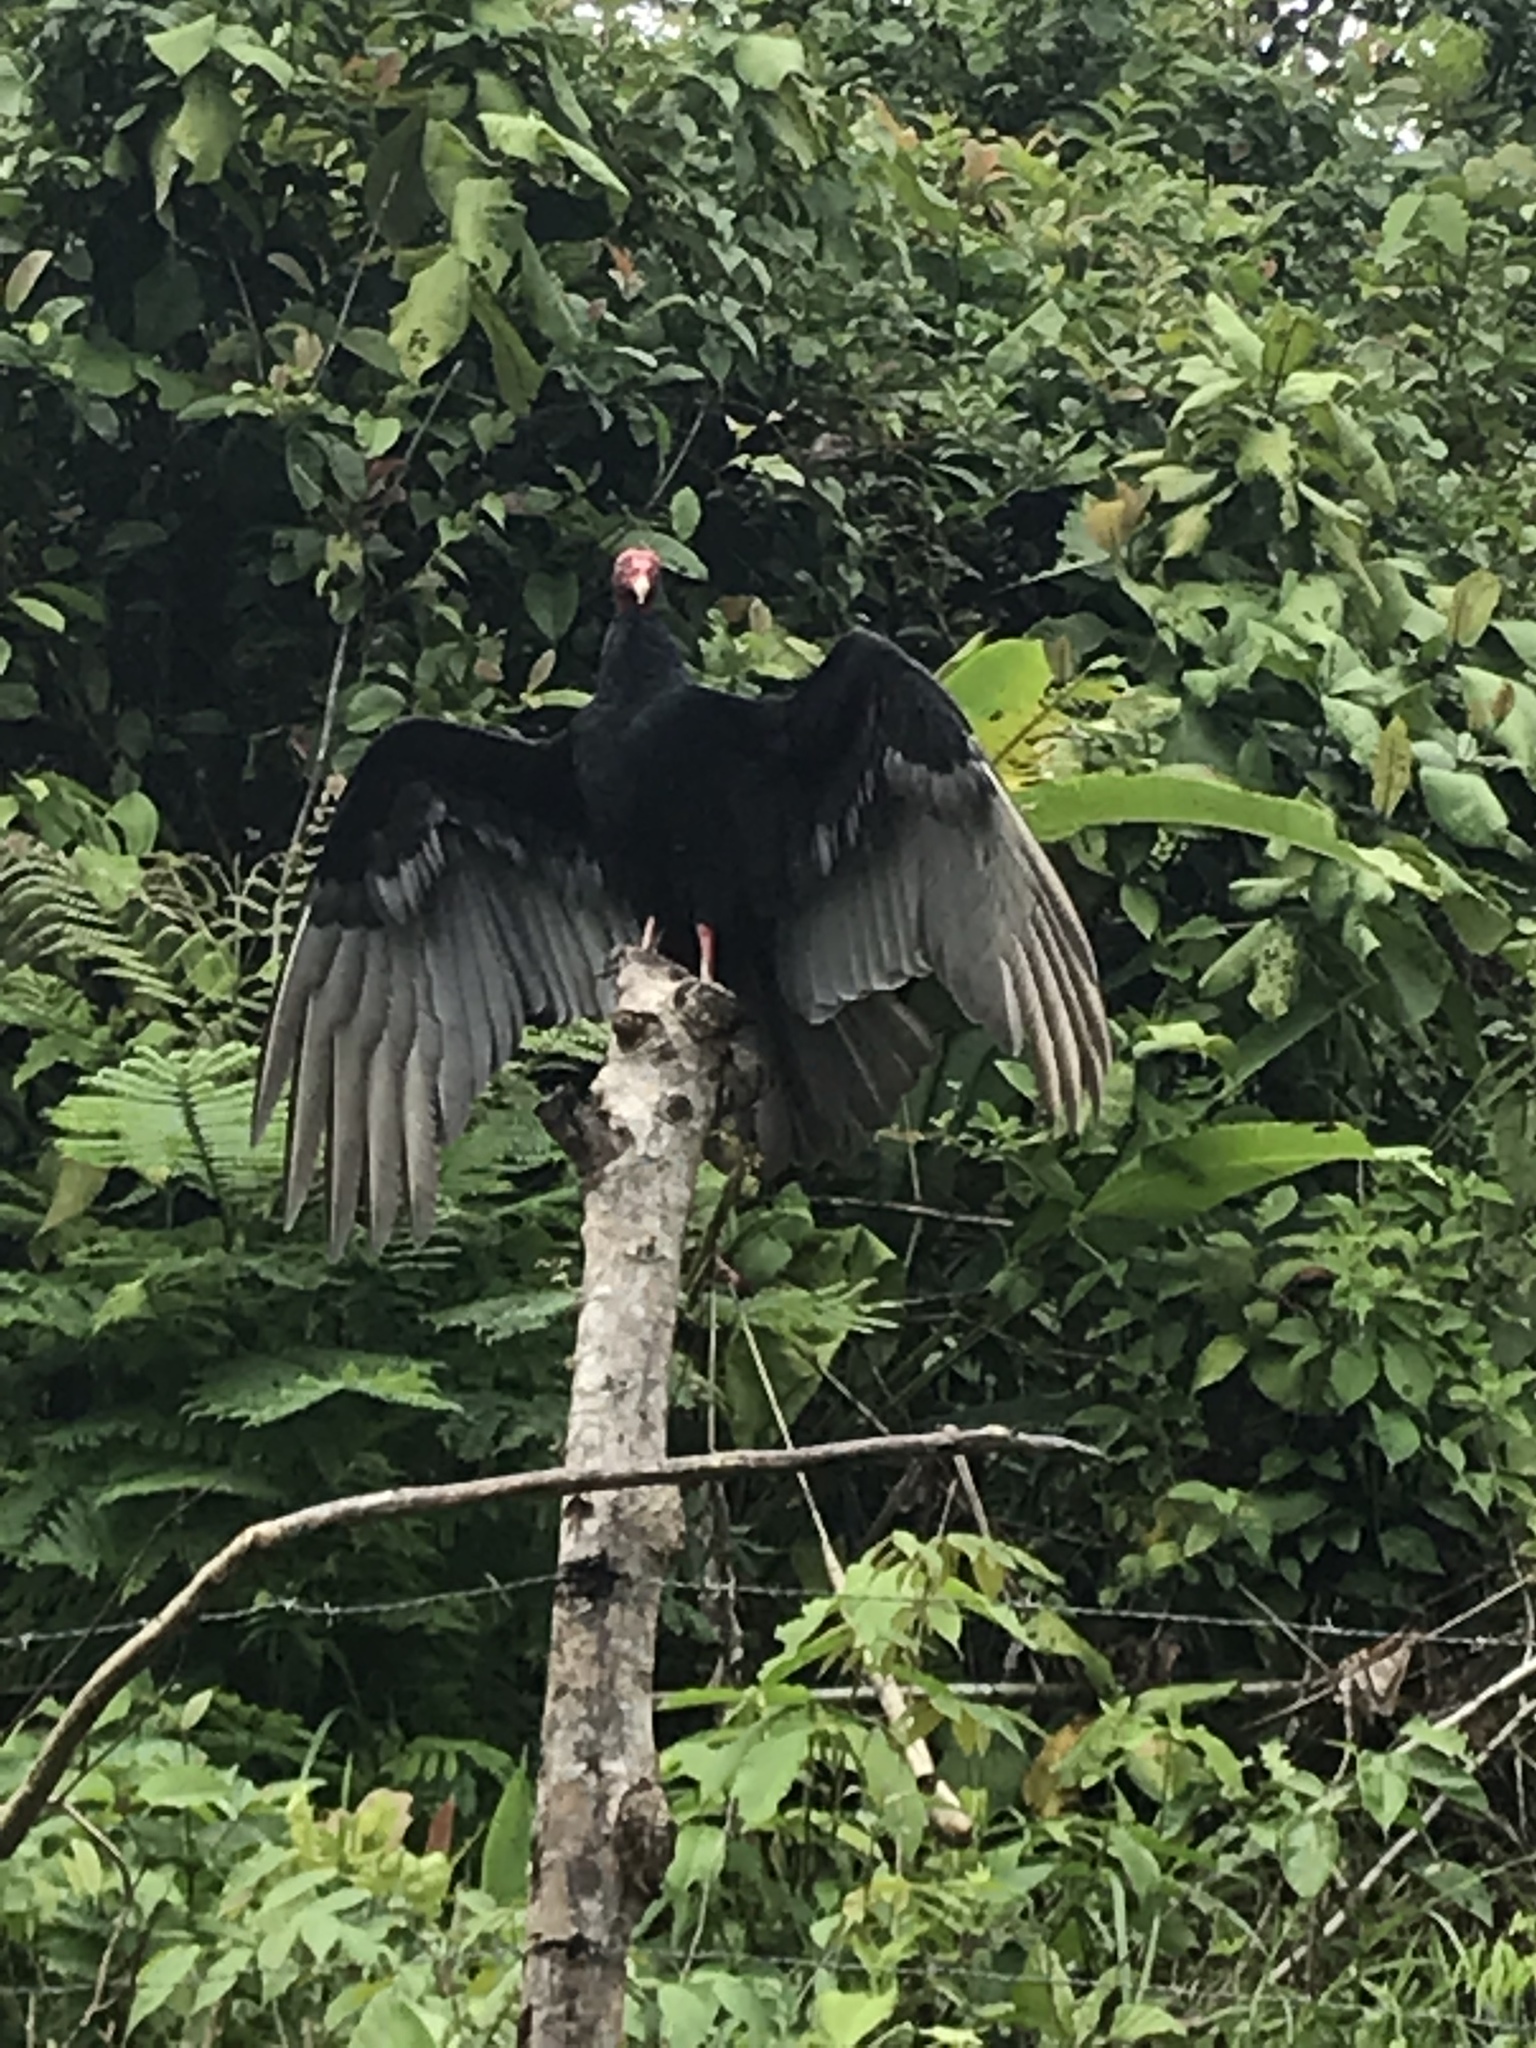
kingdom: Animalia
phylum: Chordata
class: Aves
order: Accipitriformes
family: Cathartidae
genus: Cathartes
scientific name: Cathartes aura
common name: Turkey vulture
